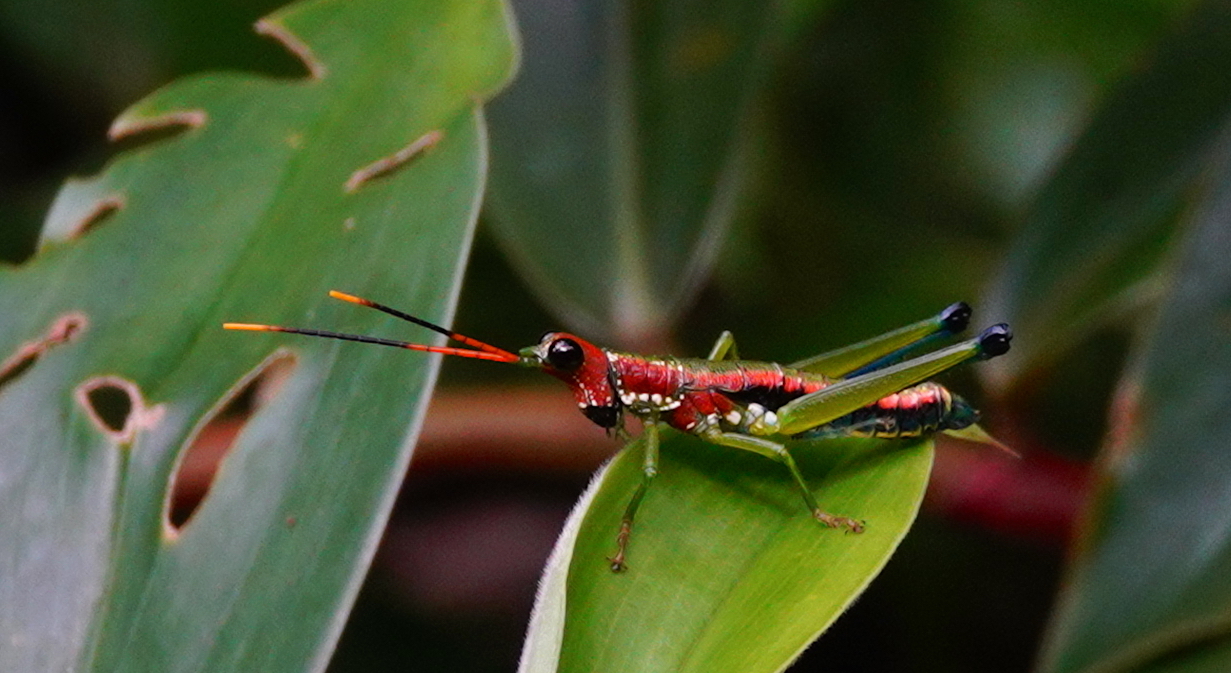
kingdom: Animalia
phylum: Arthropoda
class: Insecta
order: Orthoptera
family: Pyrgomorphidae
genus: Rakwana
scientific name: Rakwana ornata
